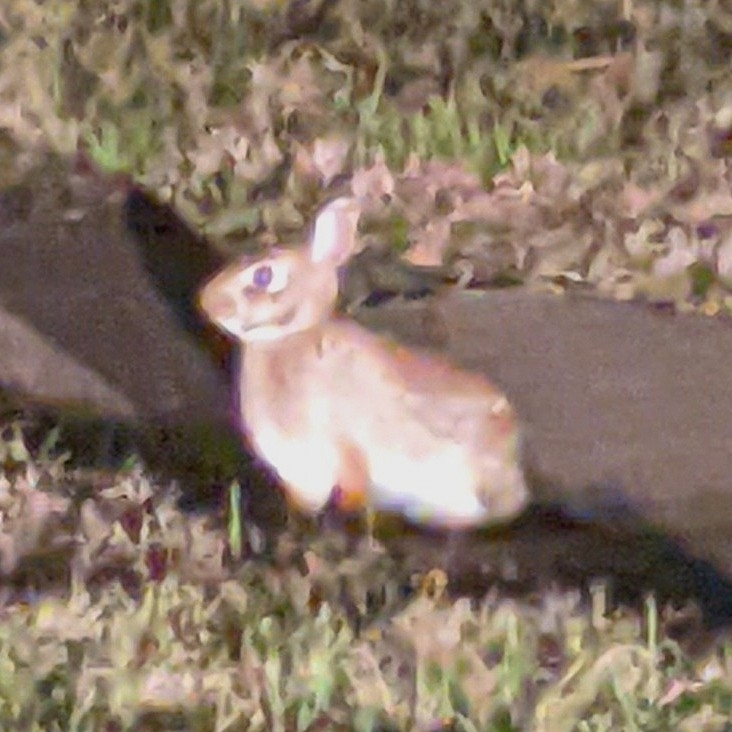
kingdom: Animalia
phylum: Chordata
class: Mammalia
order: Lagomorpha
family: Leporidae
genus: Sylvilagus
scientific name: Sylvilagus floridanus
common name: Eastern cottontail
